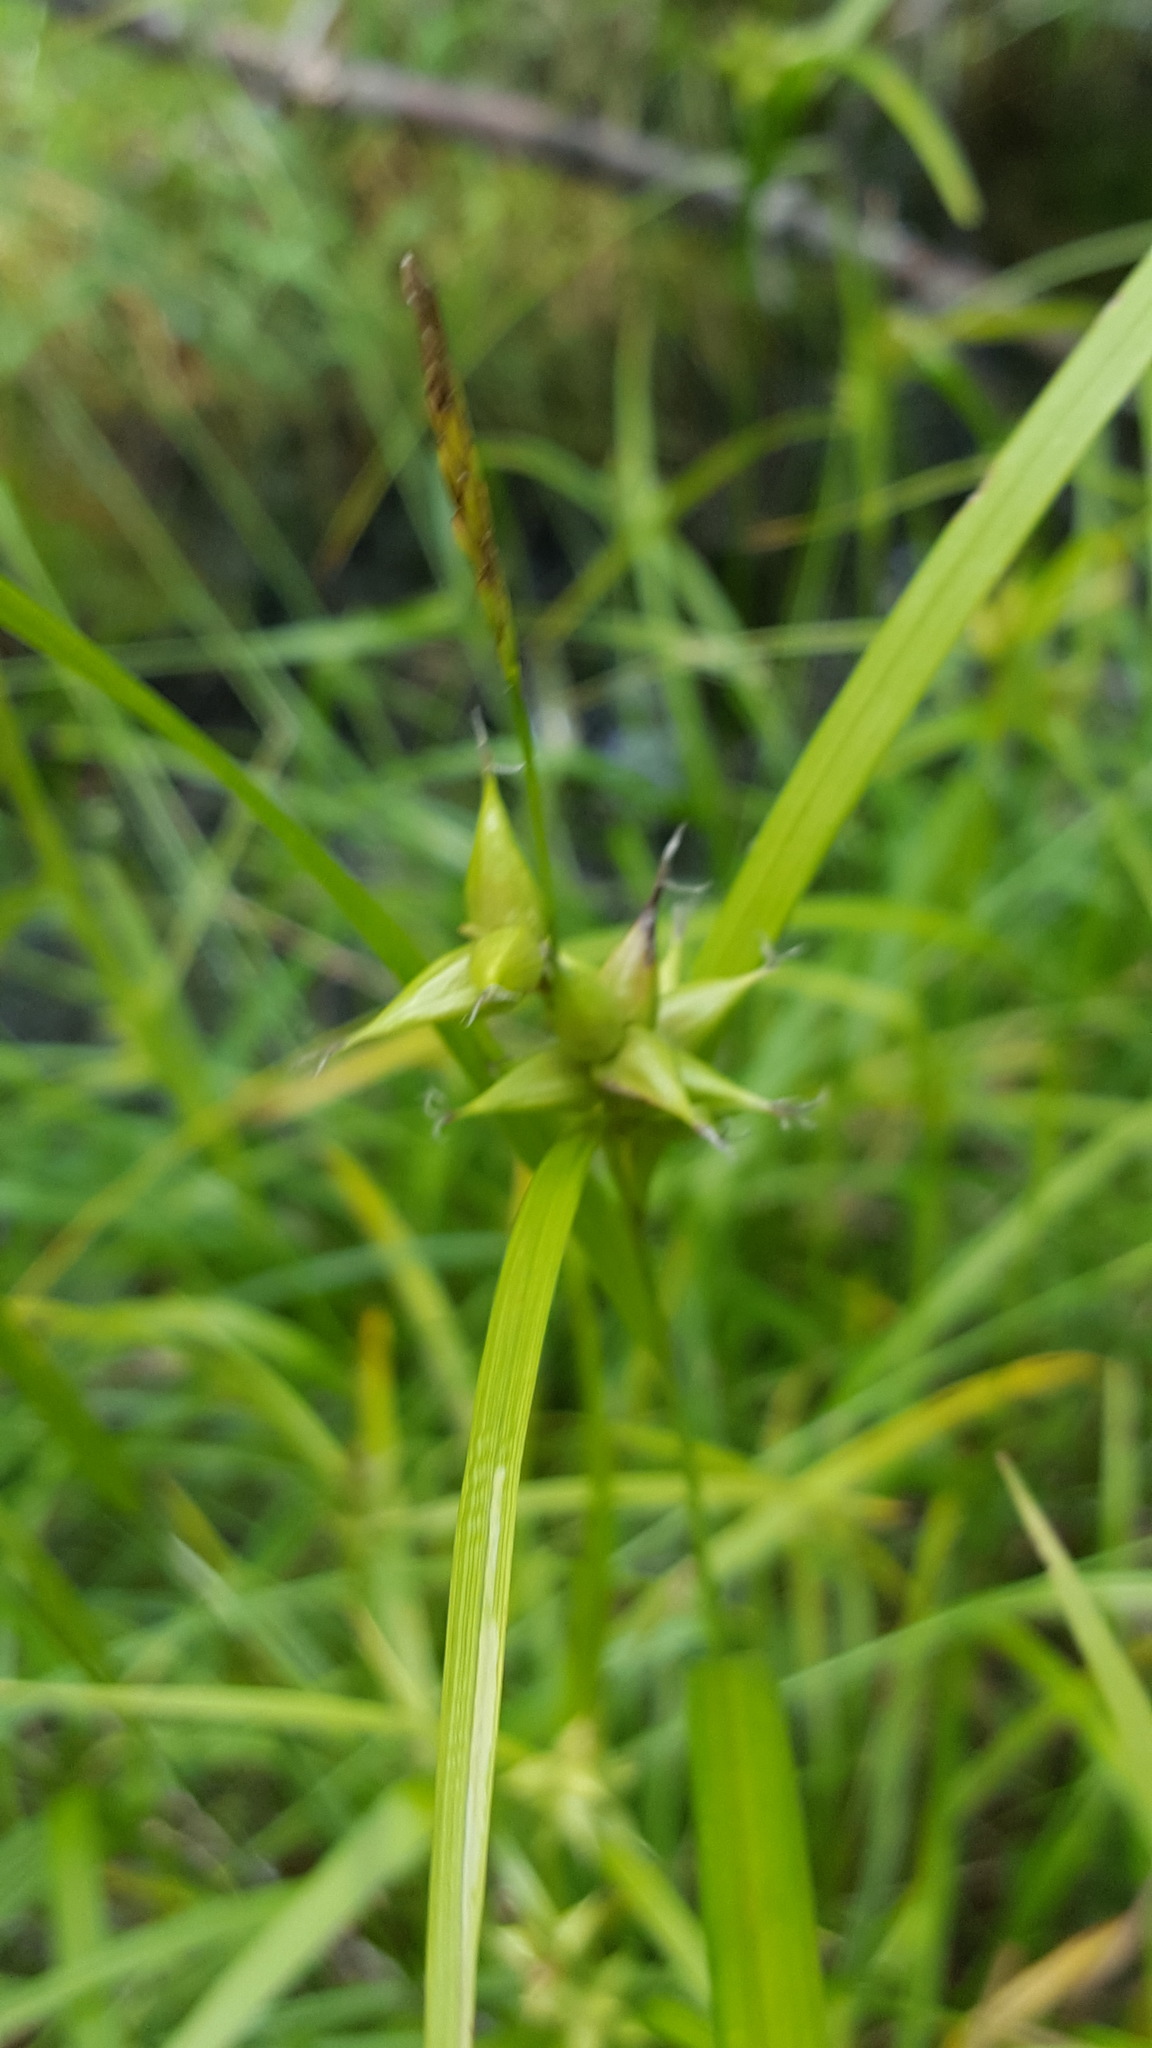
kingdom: Plantae
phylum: Tracheophyta
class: Liliopsida
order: Poales
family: Cyperaceae
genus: Carex
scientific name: Carex intumescens
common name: Greater bladder sedge
